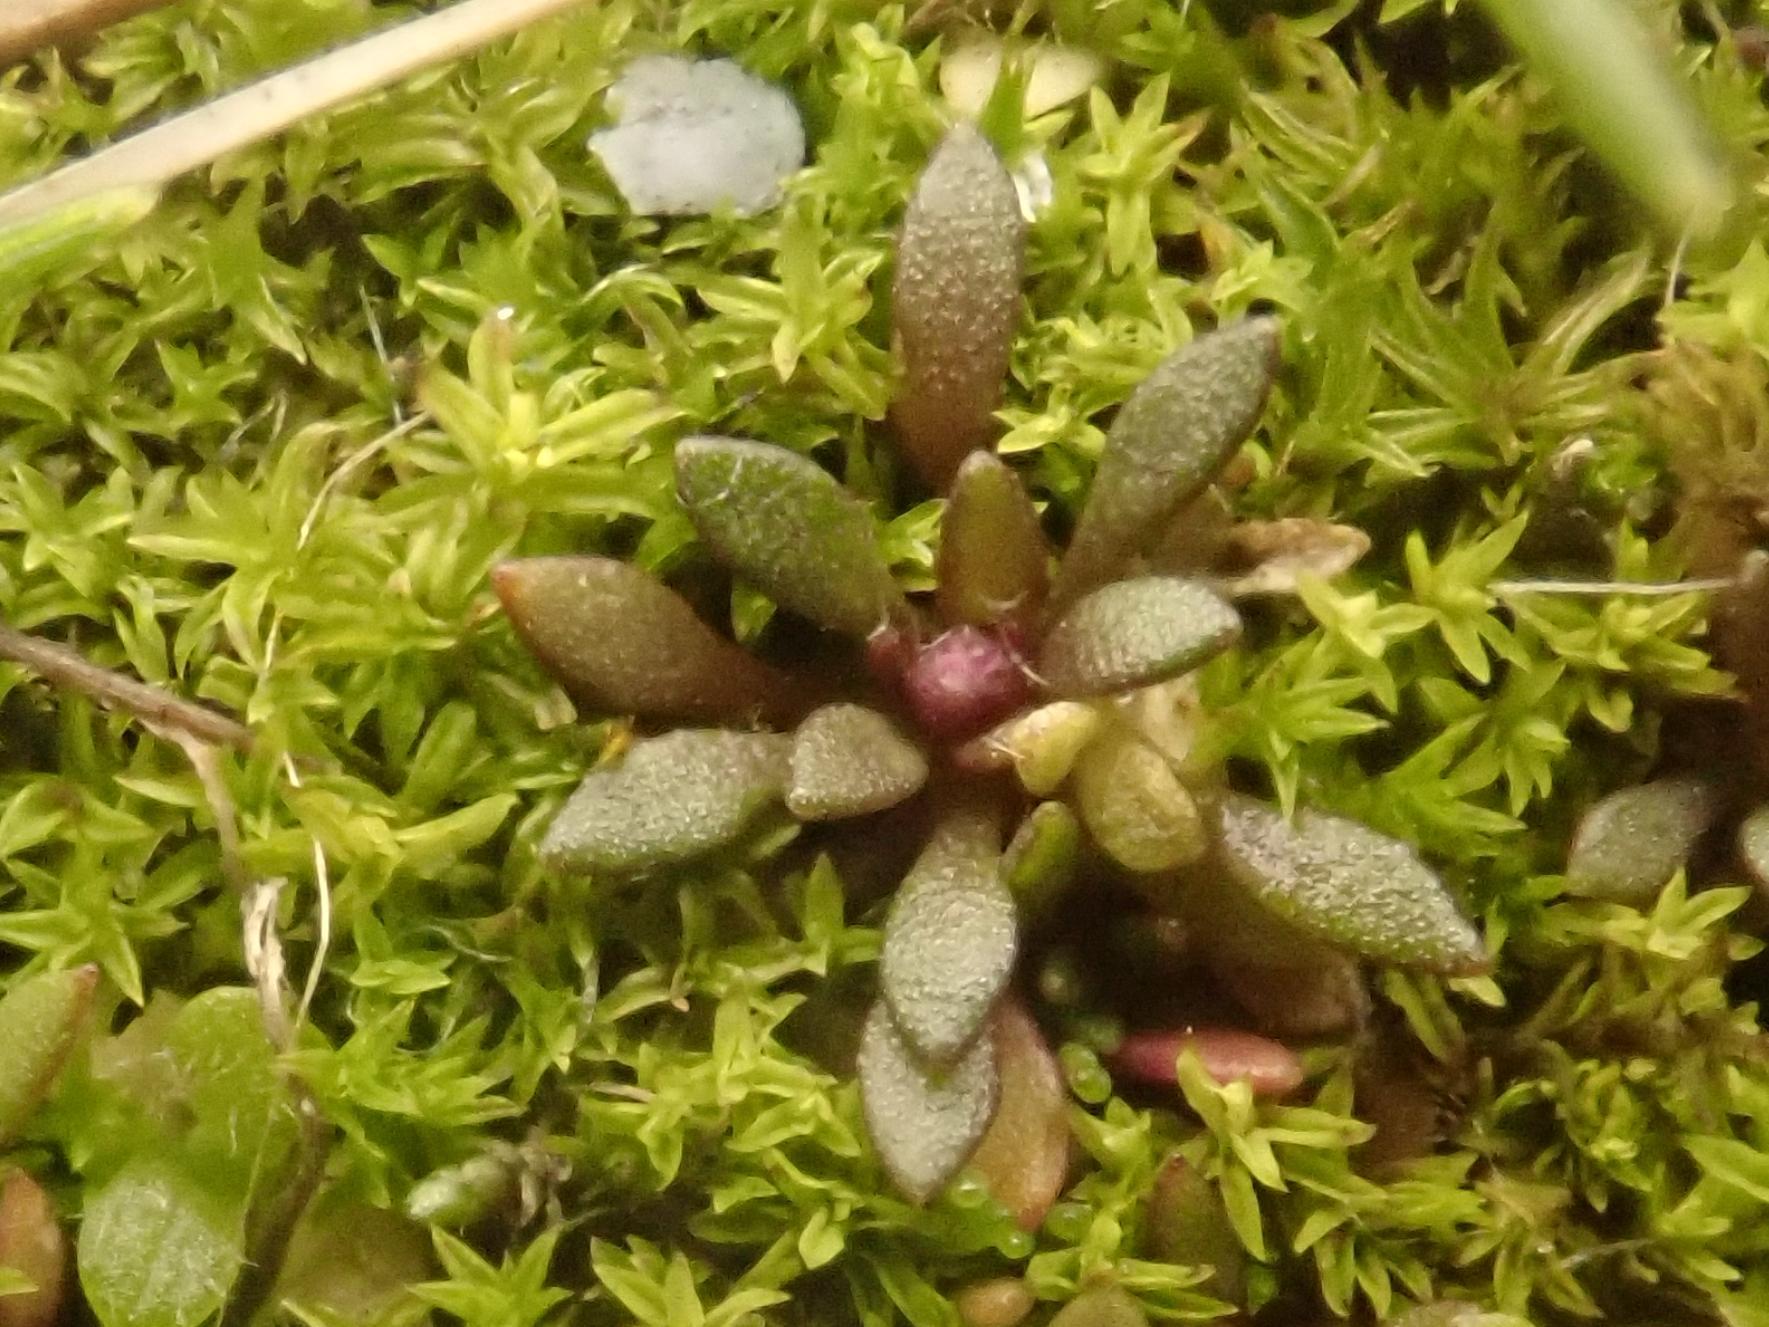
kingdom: Plantae
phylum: Tracheophyta
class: Magnoliopsida
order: Brassicales
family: Brassicaceae
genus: Draba
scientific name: Draba verna
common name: Spring draba
